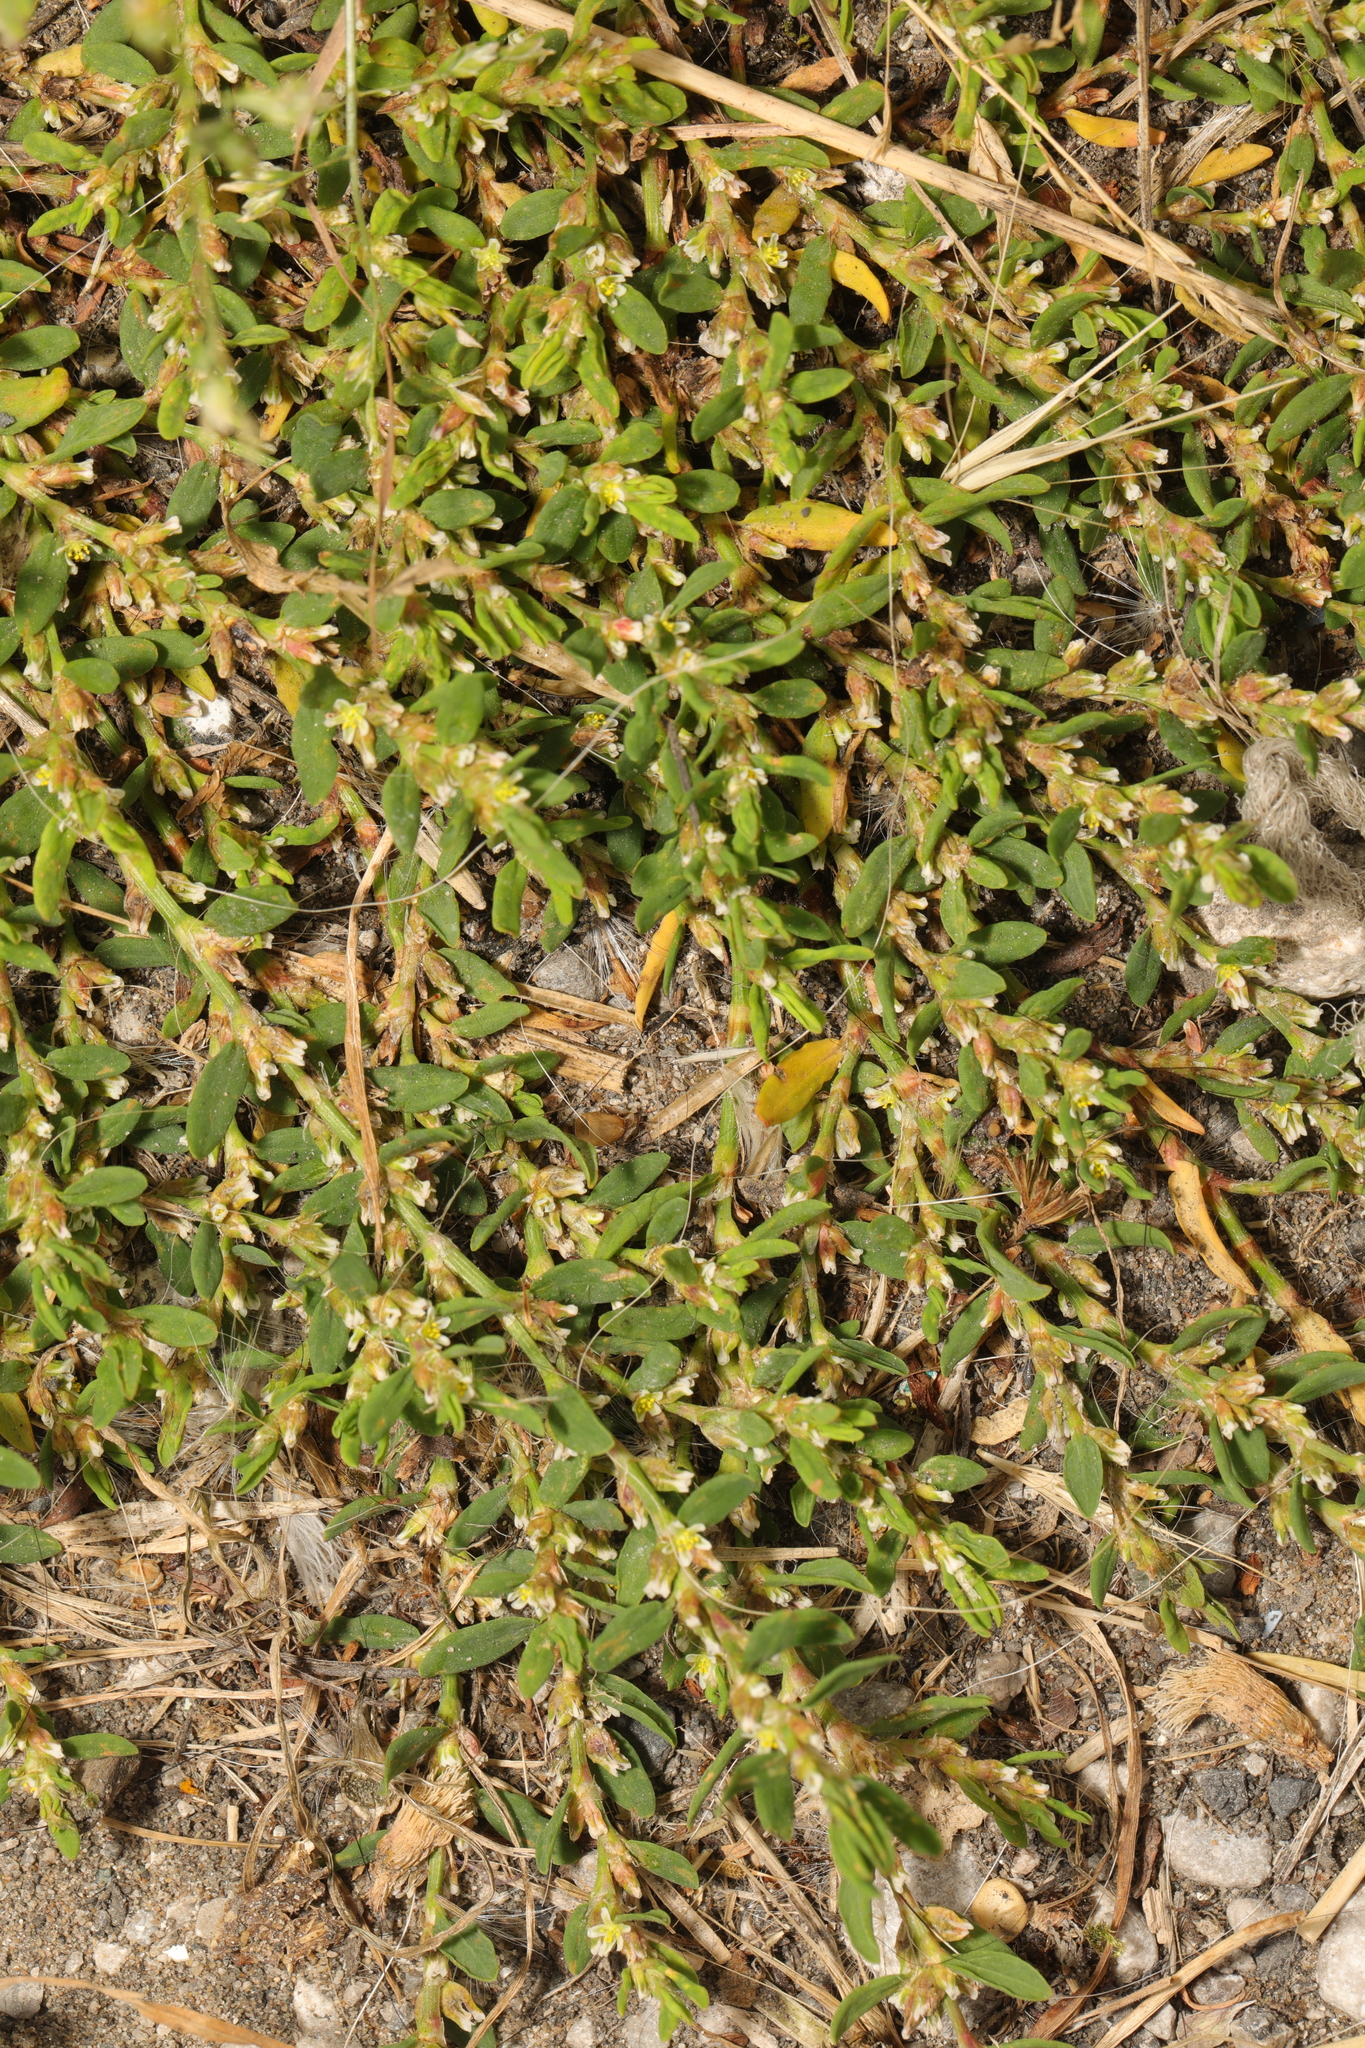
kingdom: Plantae
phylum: Tracheophyta
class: Magnoliopsida
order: Caryophyllales
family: Polygonaceae
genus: Polygonum
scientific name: Polygonum aviculare
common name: Prostrate knotweed
